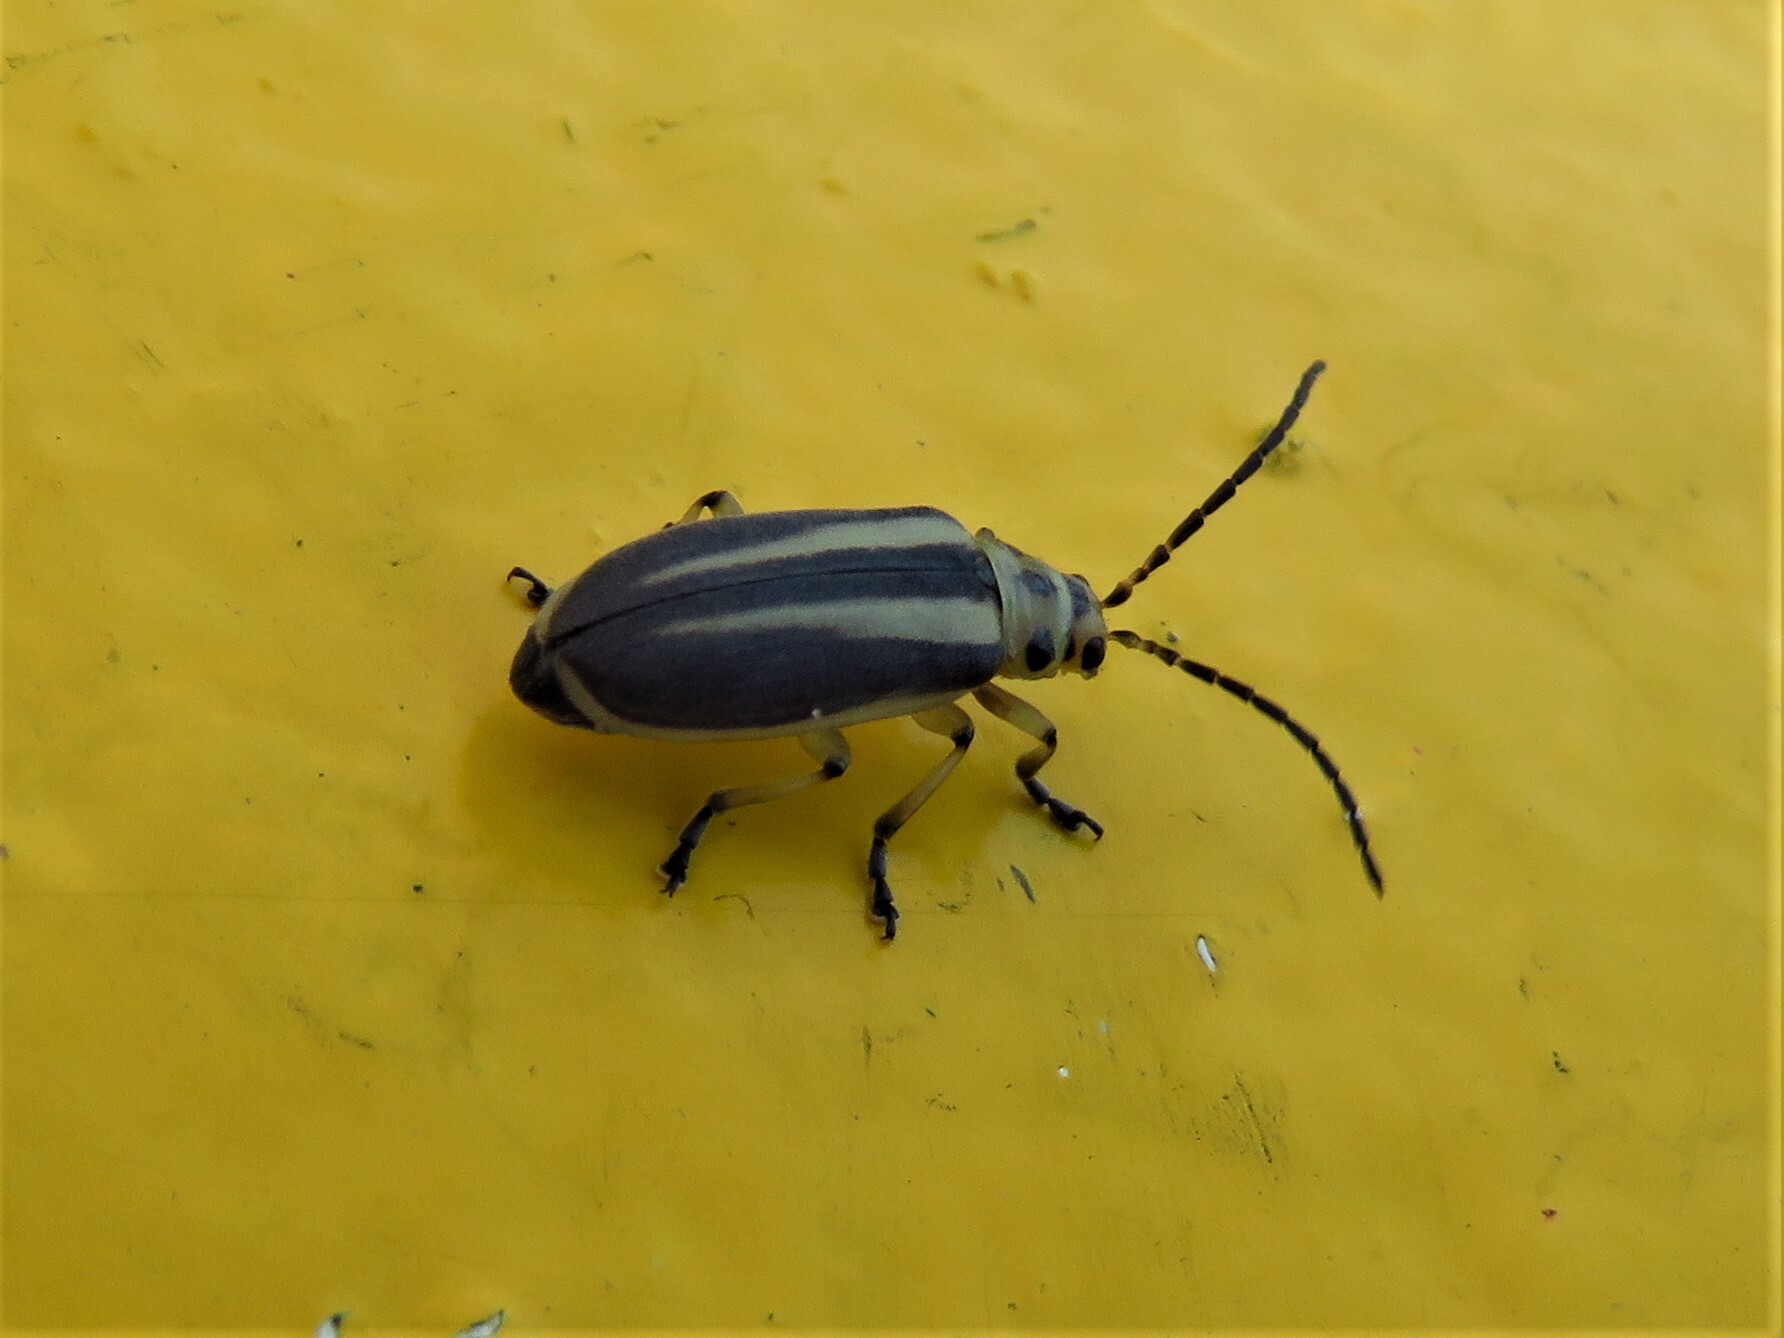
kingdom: Animalia
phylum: Arthropoda
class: Insecta
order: Coleoptera
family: Chrysomelidae
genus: Trirhabda
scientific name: Trirhabda bacharidis
